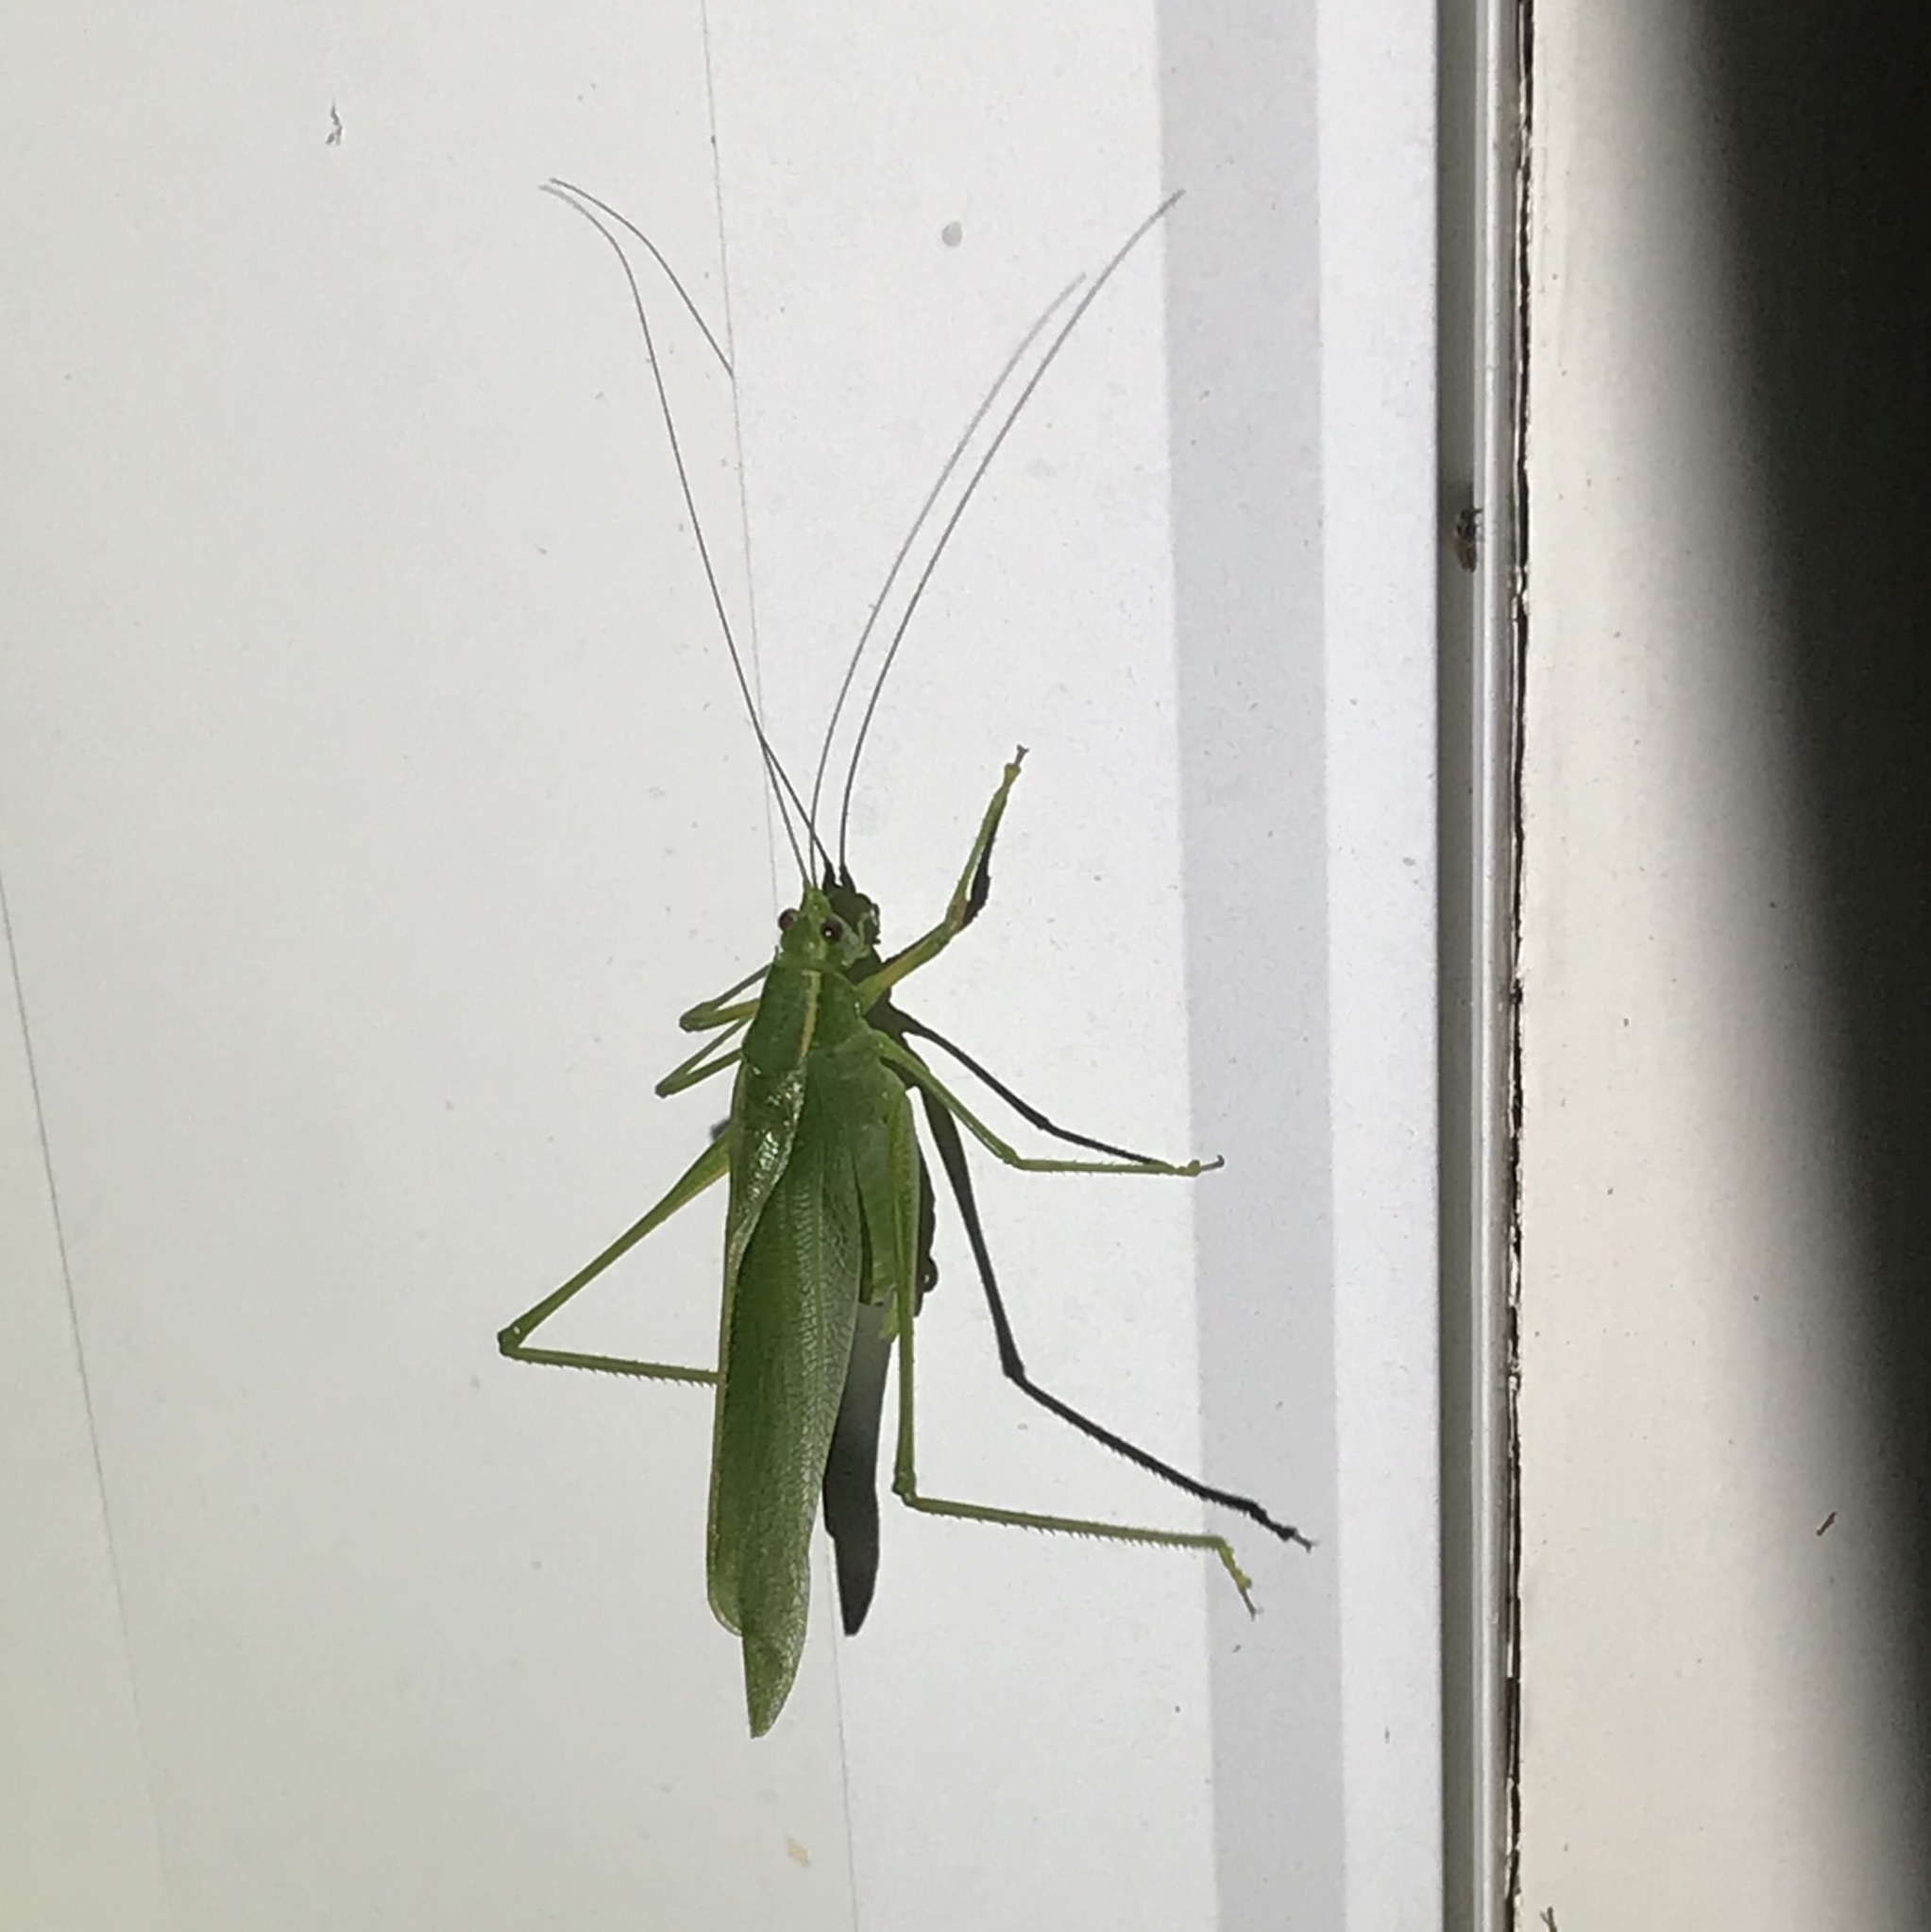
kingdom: Animalia
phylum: Arthropoda
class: Insecta
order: Orthoptera
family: Tettigoniidae
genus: Scudderia
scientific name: Scudderia septentrionalis
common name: Northern bush-katydid
